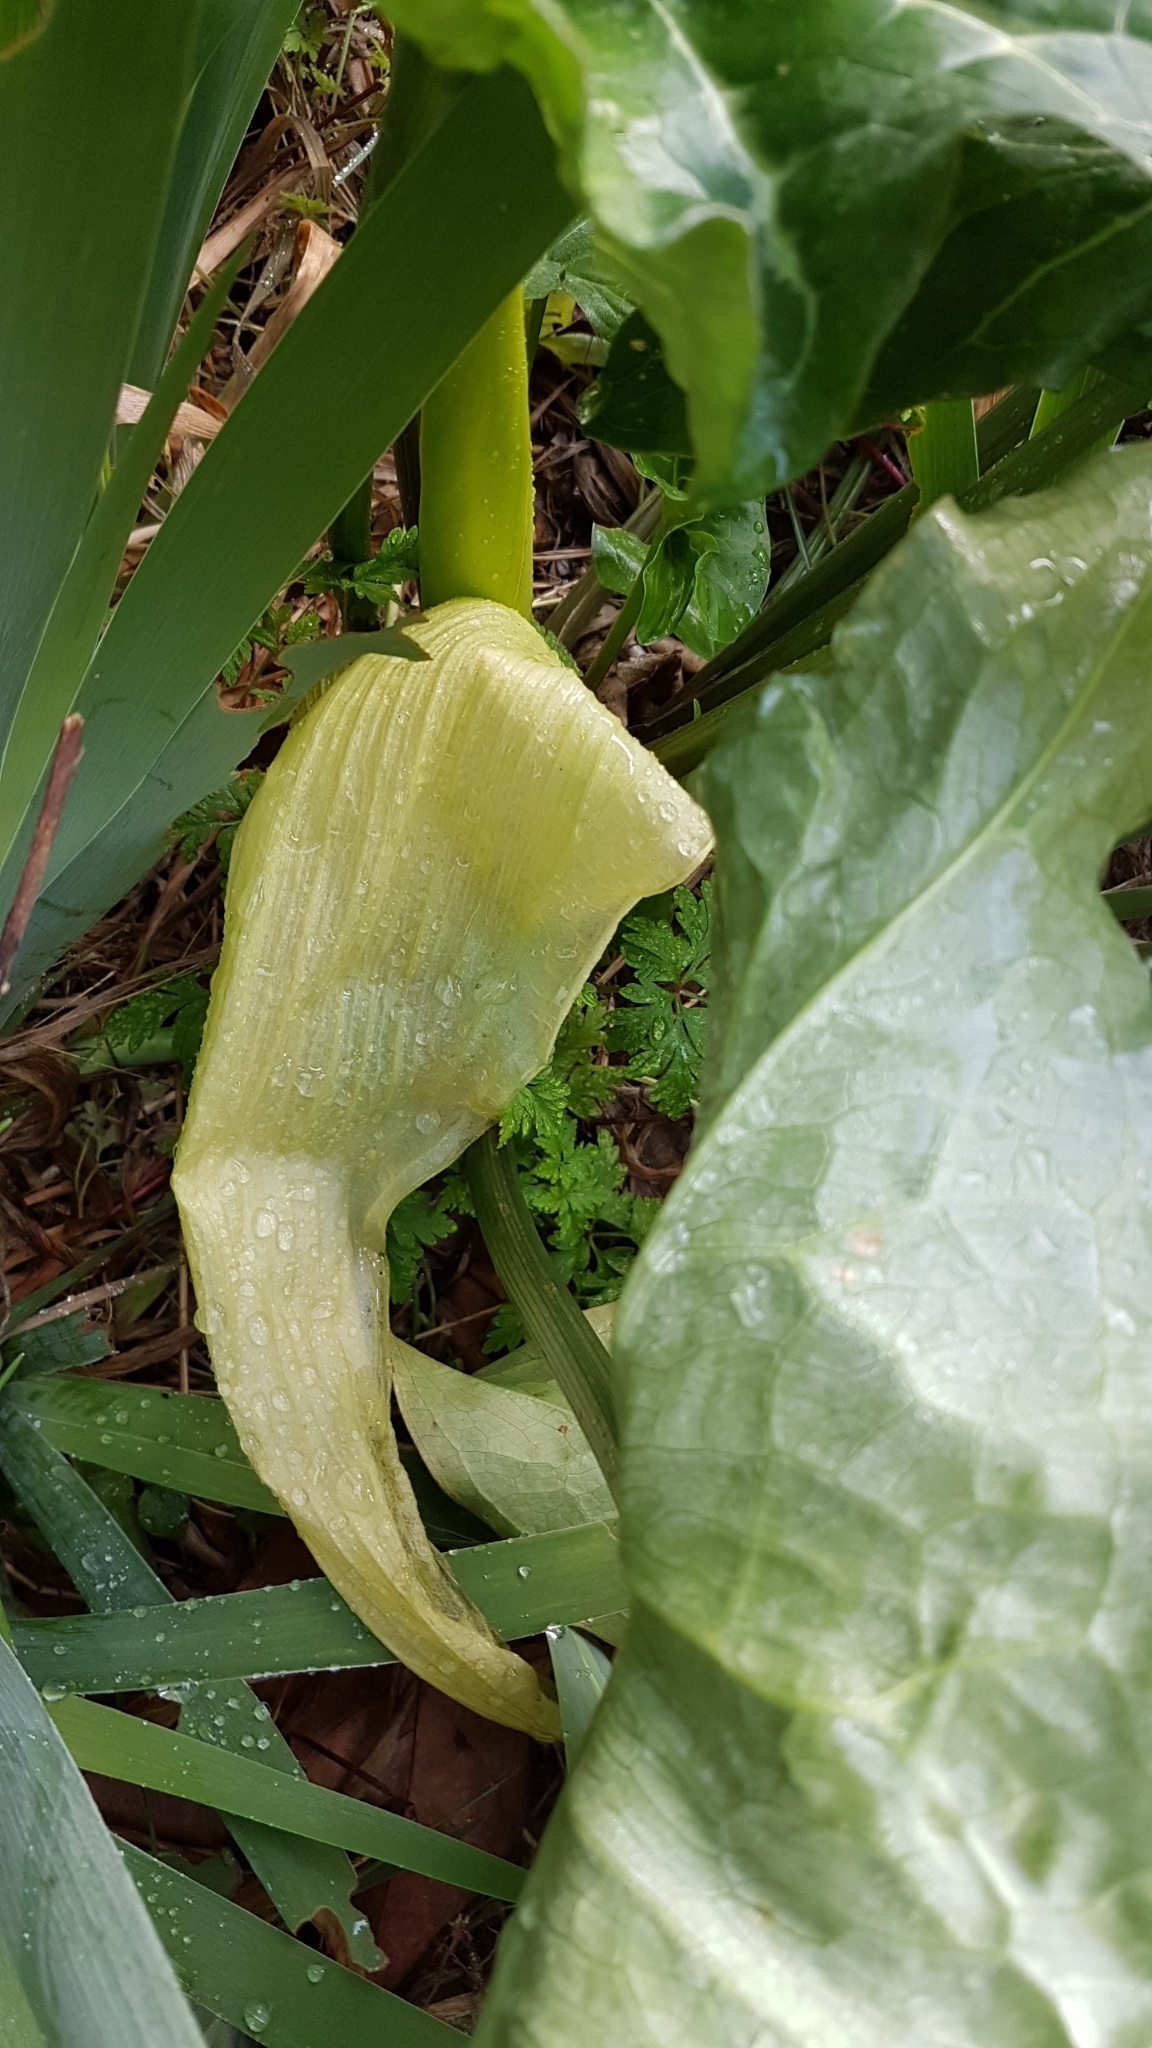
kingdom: Plantae
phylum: Tracheophyta
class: Liliopsida
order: Alismatales
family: Araceae
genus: Arum
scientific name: Arum italicum
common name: Italian lords-and-ladies
